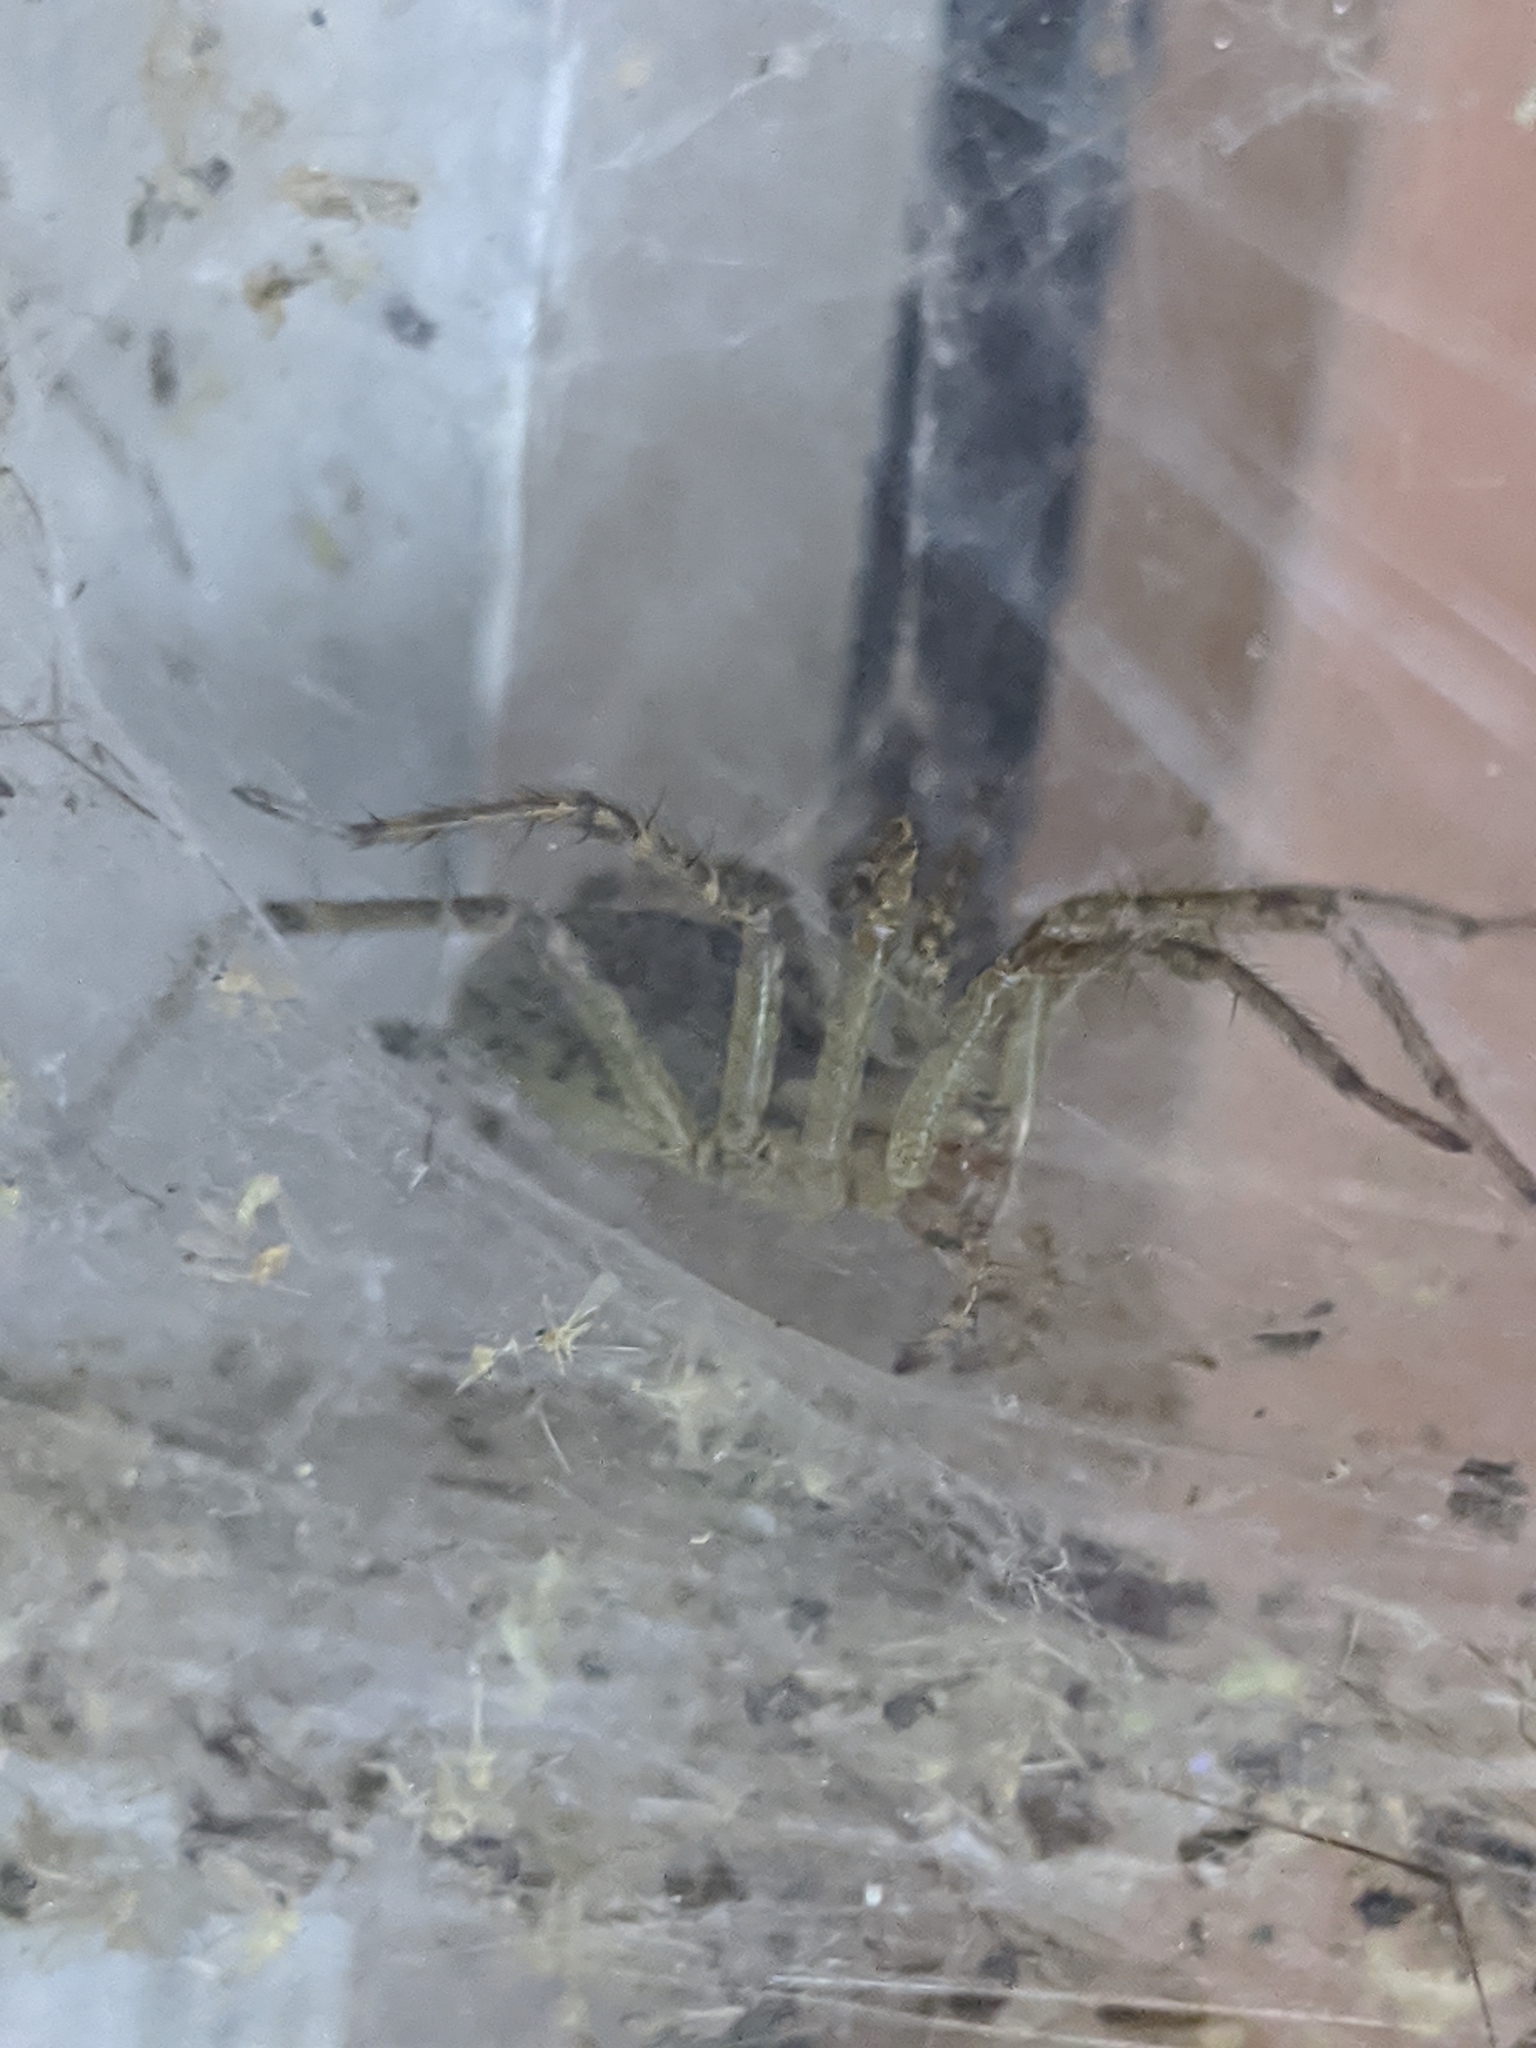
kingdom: Animalia
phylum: Arthropoda
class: Arachnida
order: Araneae
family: Agelenidae
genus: Agelenopsis
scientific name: Agelenopsis
